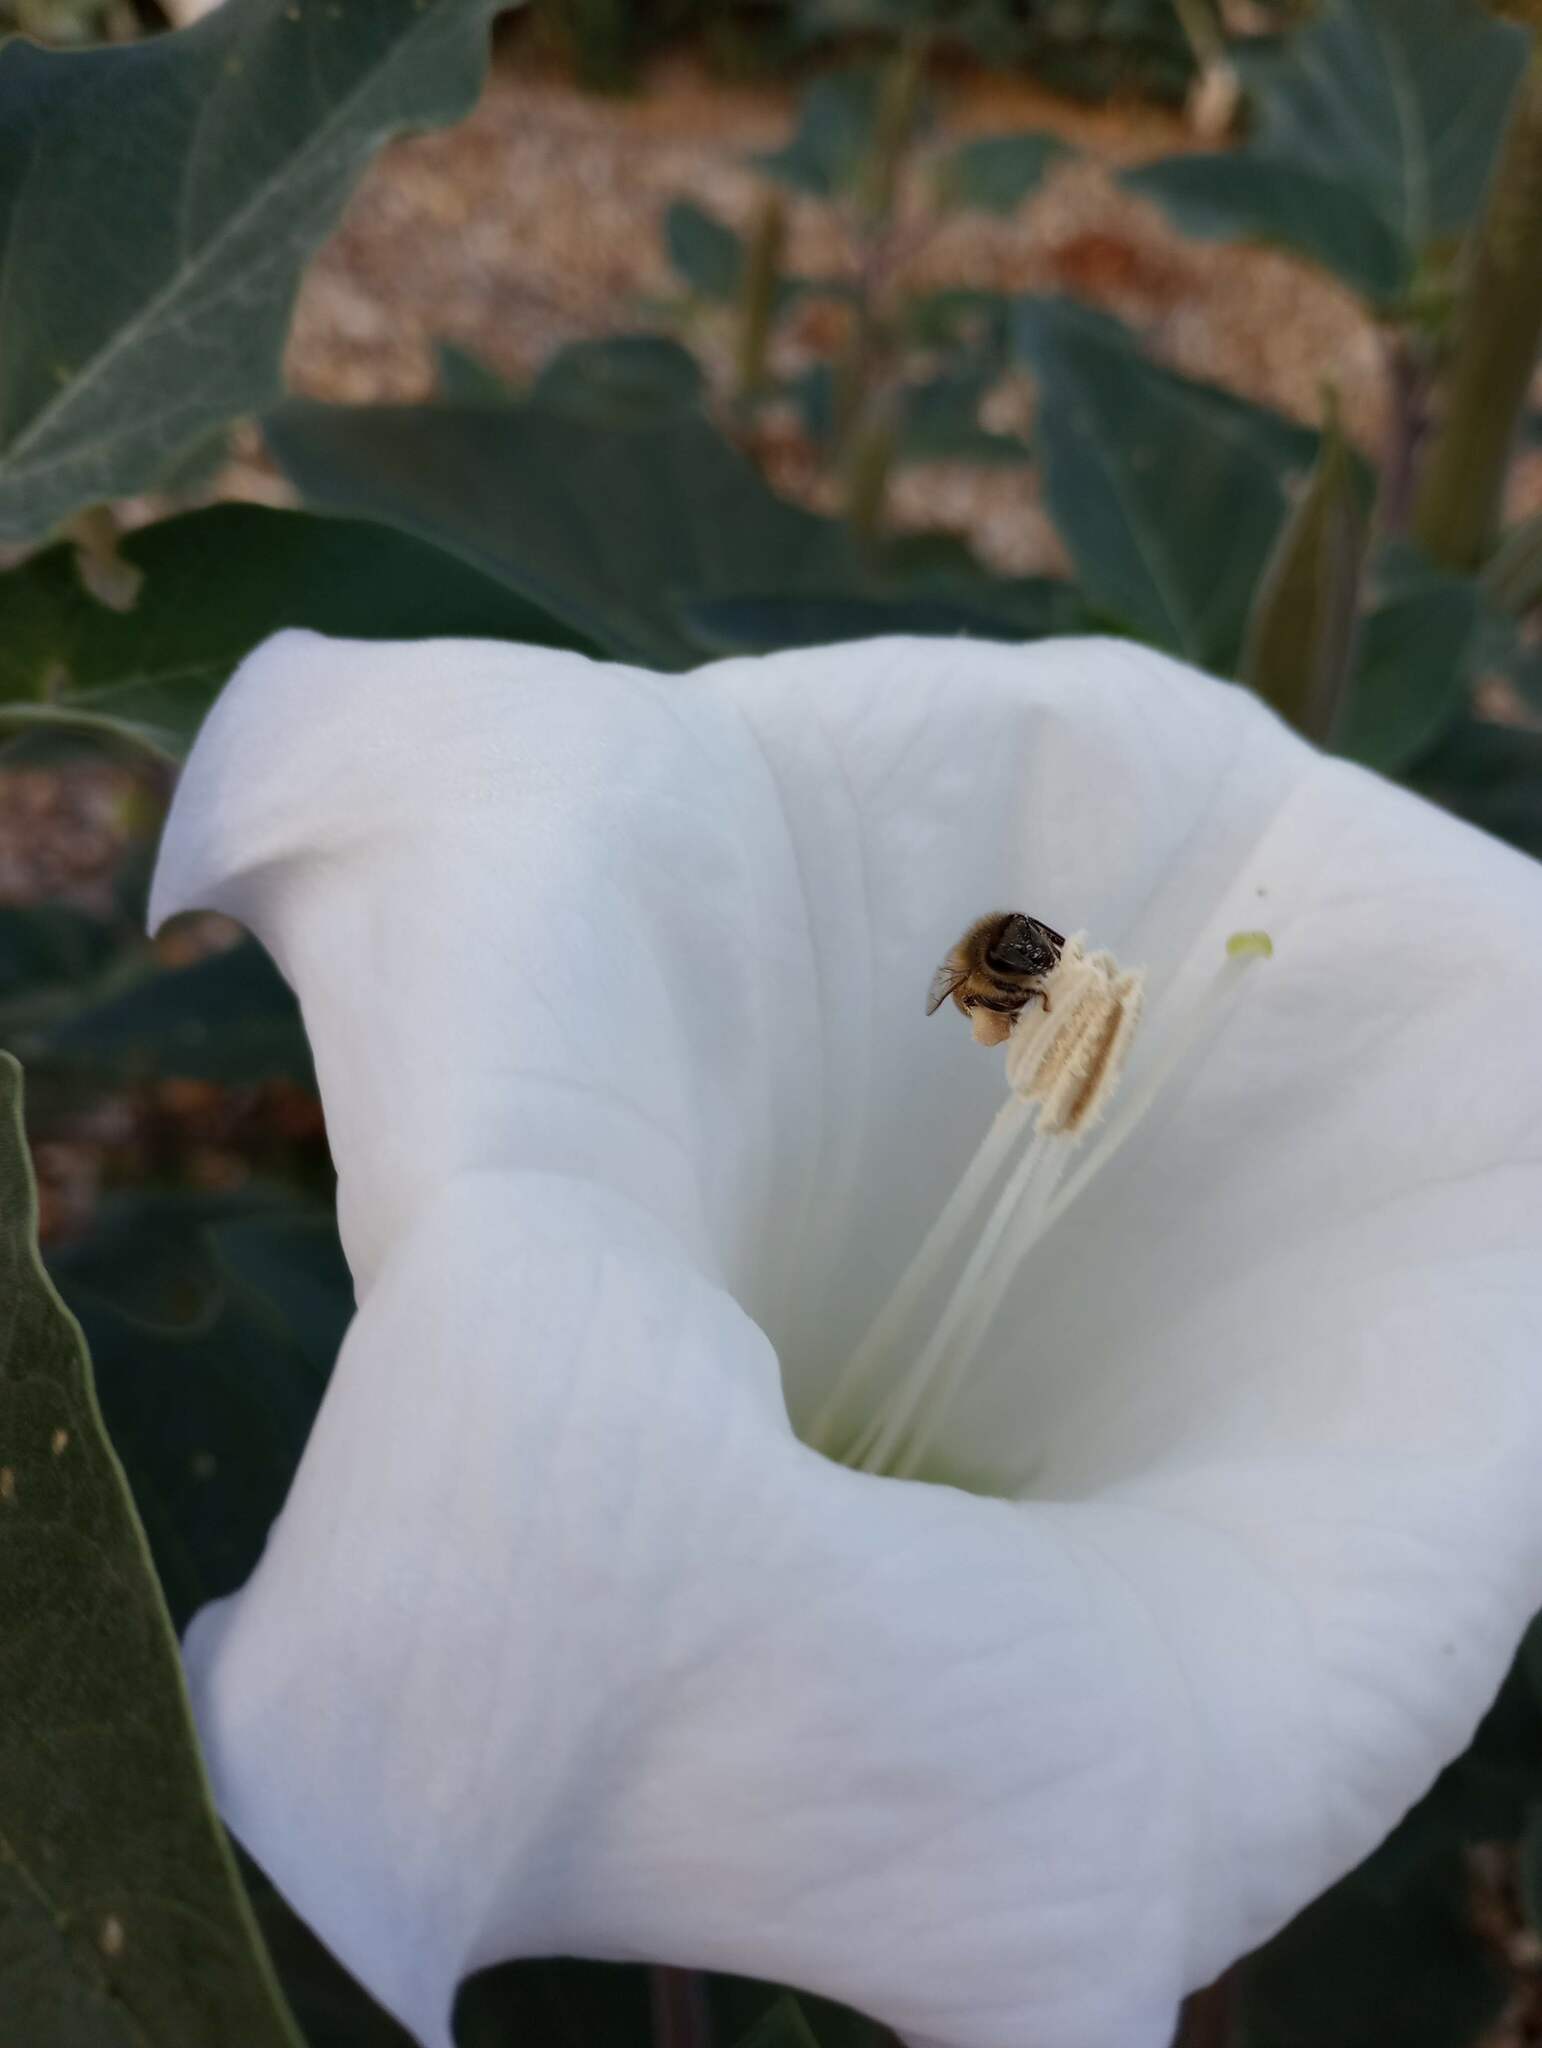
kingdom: Animalia
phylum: Arthropoda
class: Insecta
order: Hymenoptera
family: Apidae
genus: Apis
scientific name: Apis mellifera
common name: Honey bee
